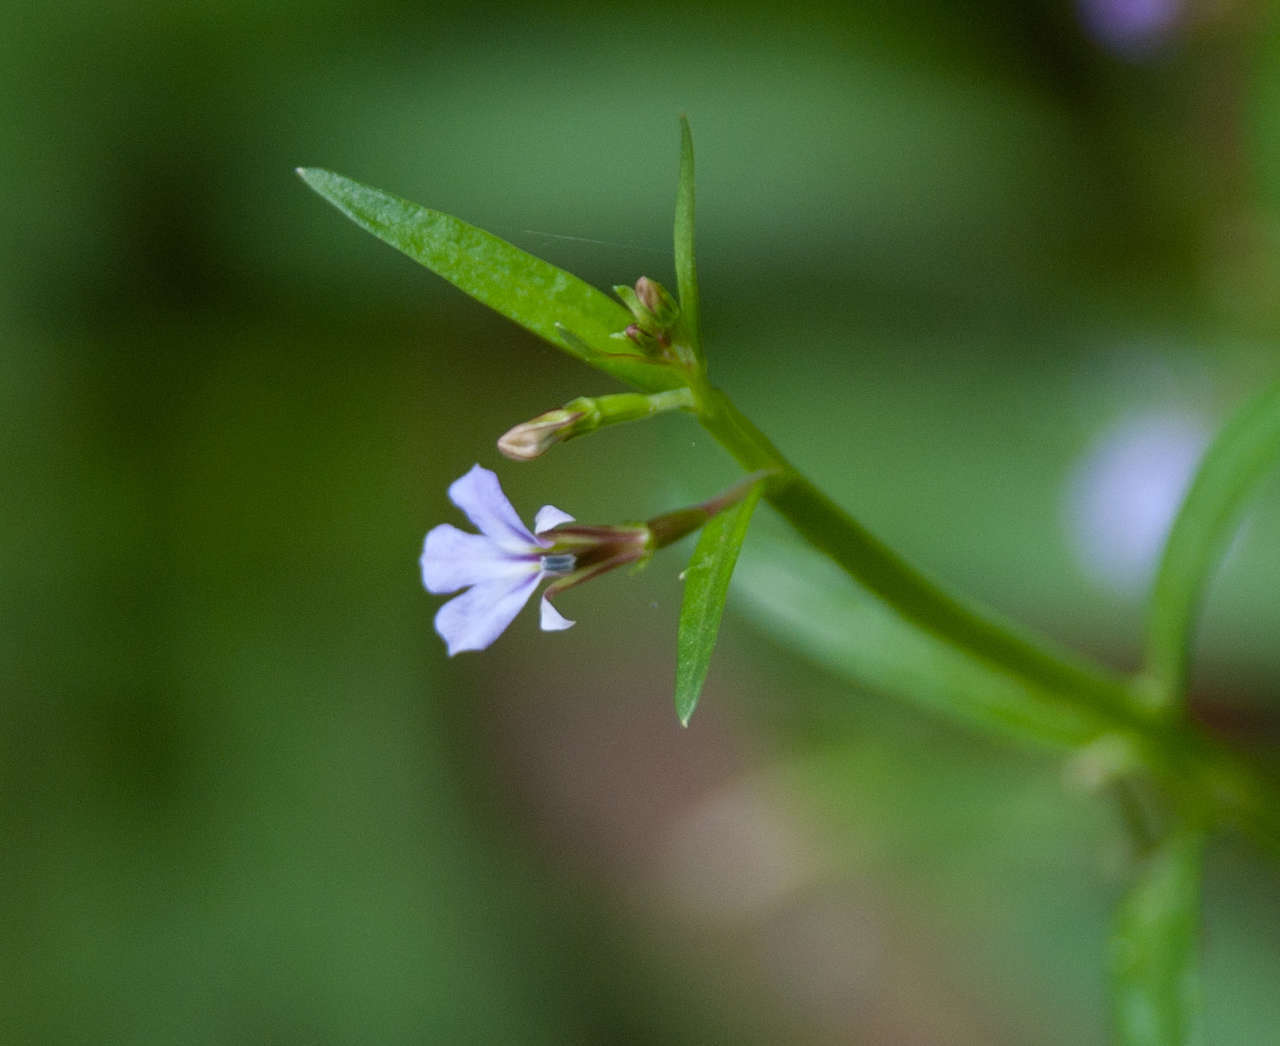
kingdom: Plantae
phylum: Tracheophyta
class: Magnoliopsida
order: Asterales
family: Campanulaceae
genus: Lobelia
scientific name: Lobelia anceps
